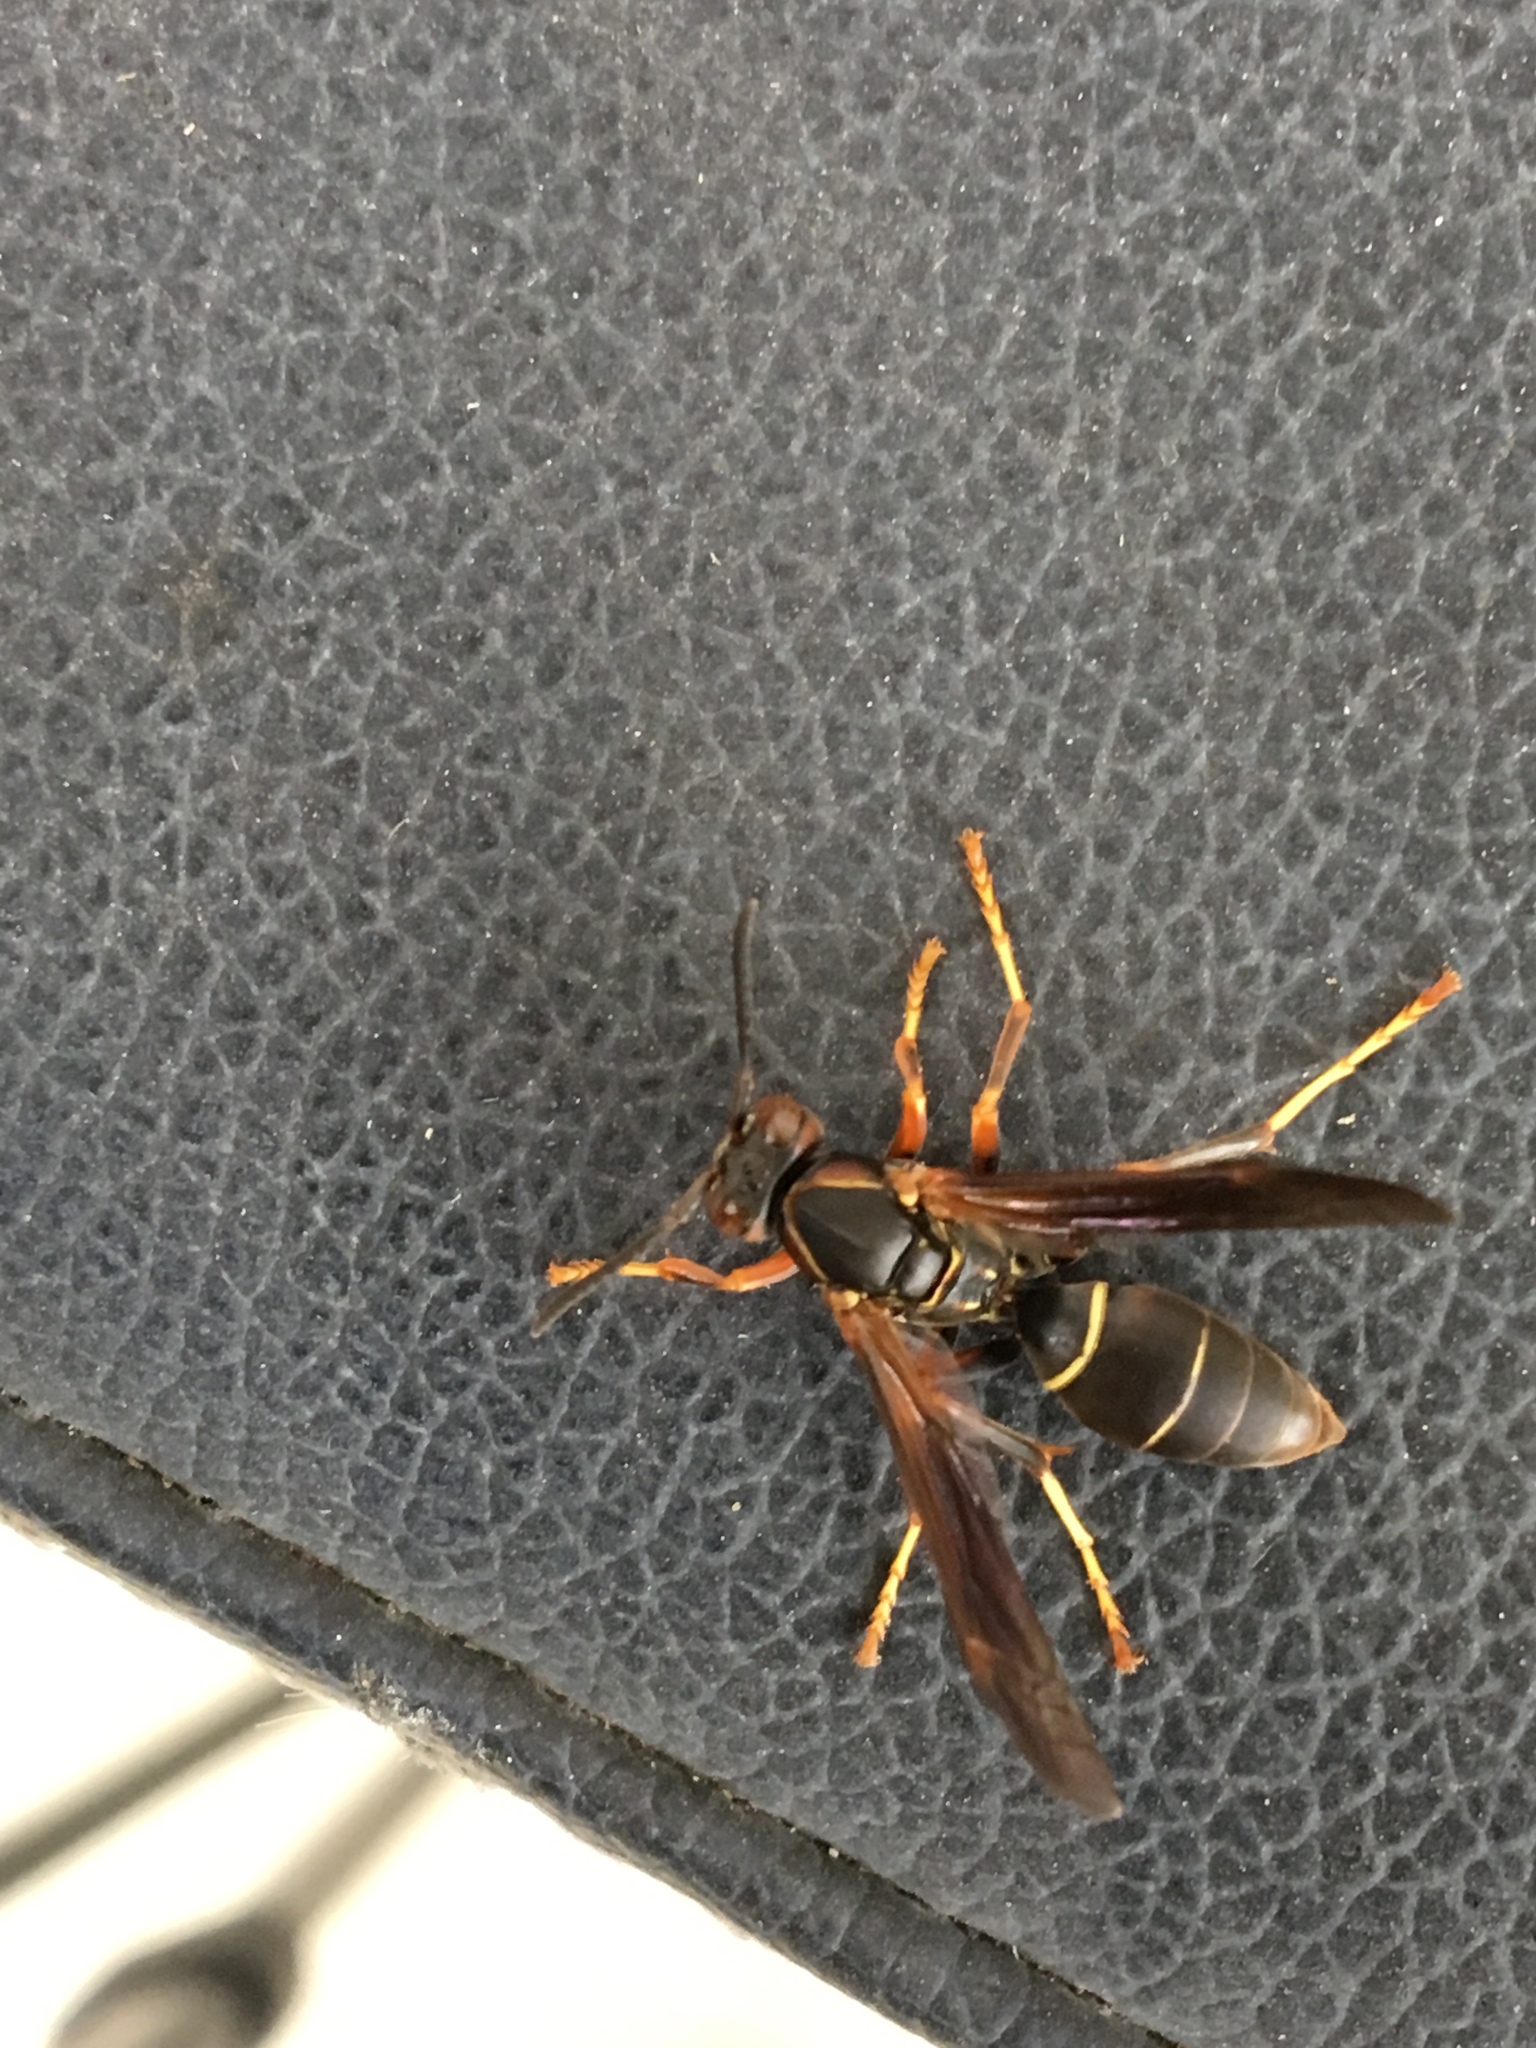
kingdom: Animalia
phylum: Arthropoda
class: Insecta
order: Hymenoptera
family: Eumenidae
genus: Polistes
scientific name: Polistes fuscatus
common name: Dark paper wasp
